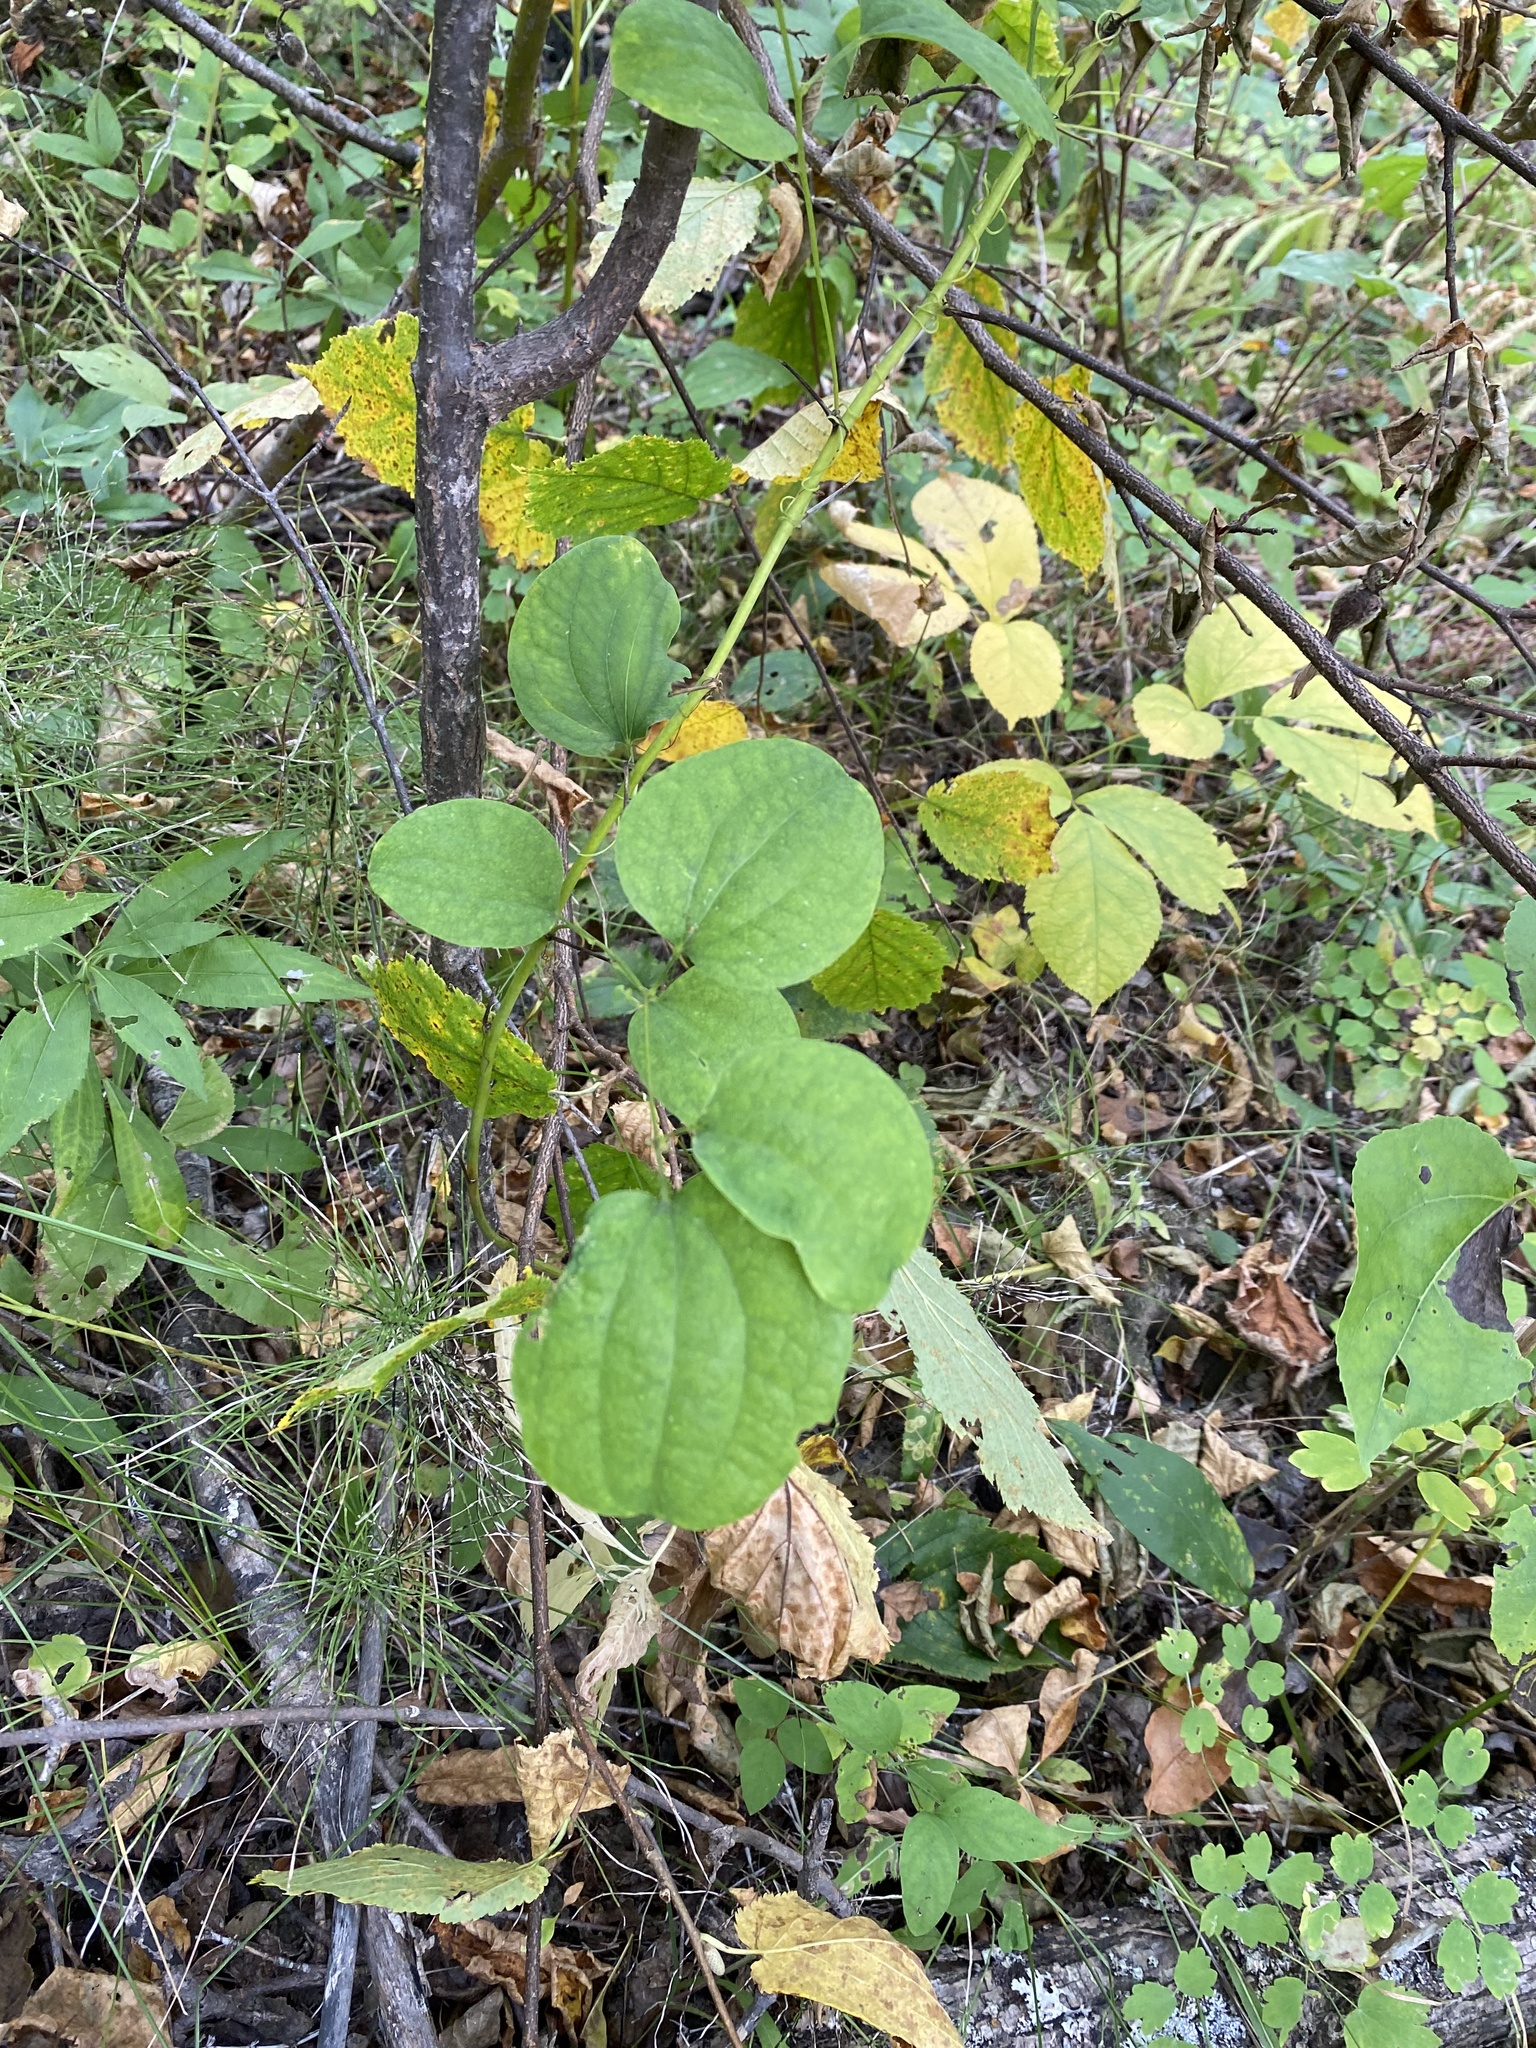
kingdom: Plantae
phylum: Tracheophyta
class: Liliopsida
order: Liliales
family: Smilacaceae
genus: Smilax
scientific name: Smilax lasioneura
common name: Blue ridge carrionflower
